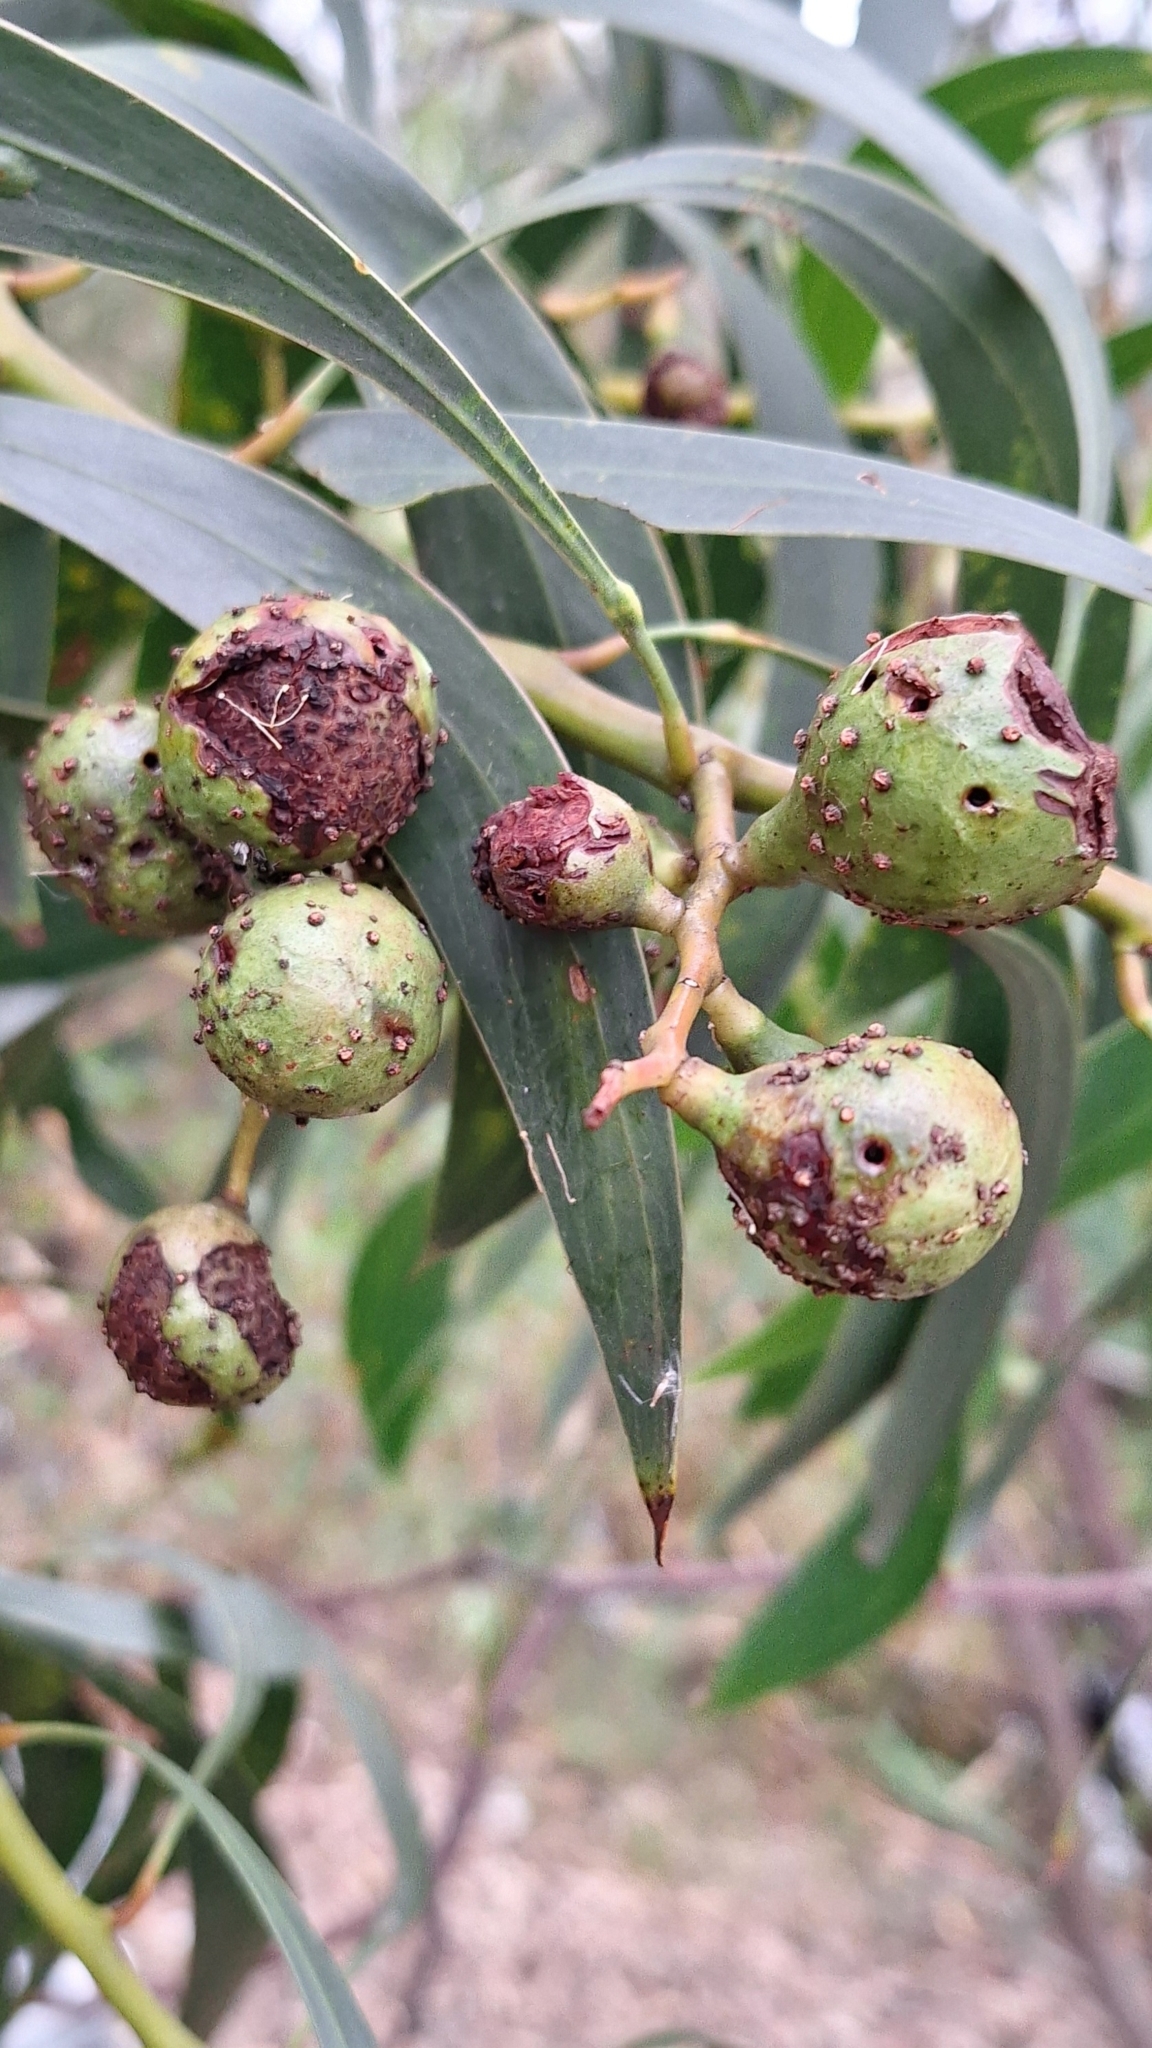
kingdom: Animalia
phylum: Arthropoda
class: Insecta
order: Hymenoptera
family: Pteromalidae
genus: Trichilogaster
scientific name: Trichilogaster signiventris
